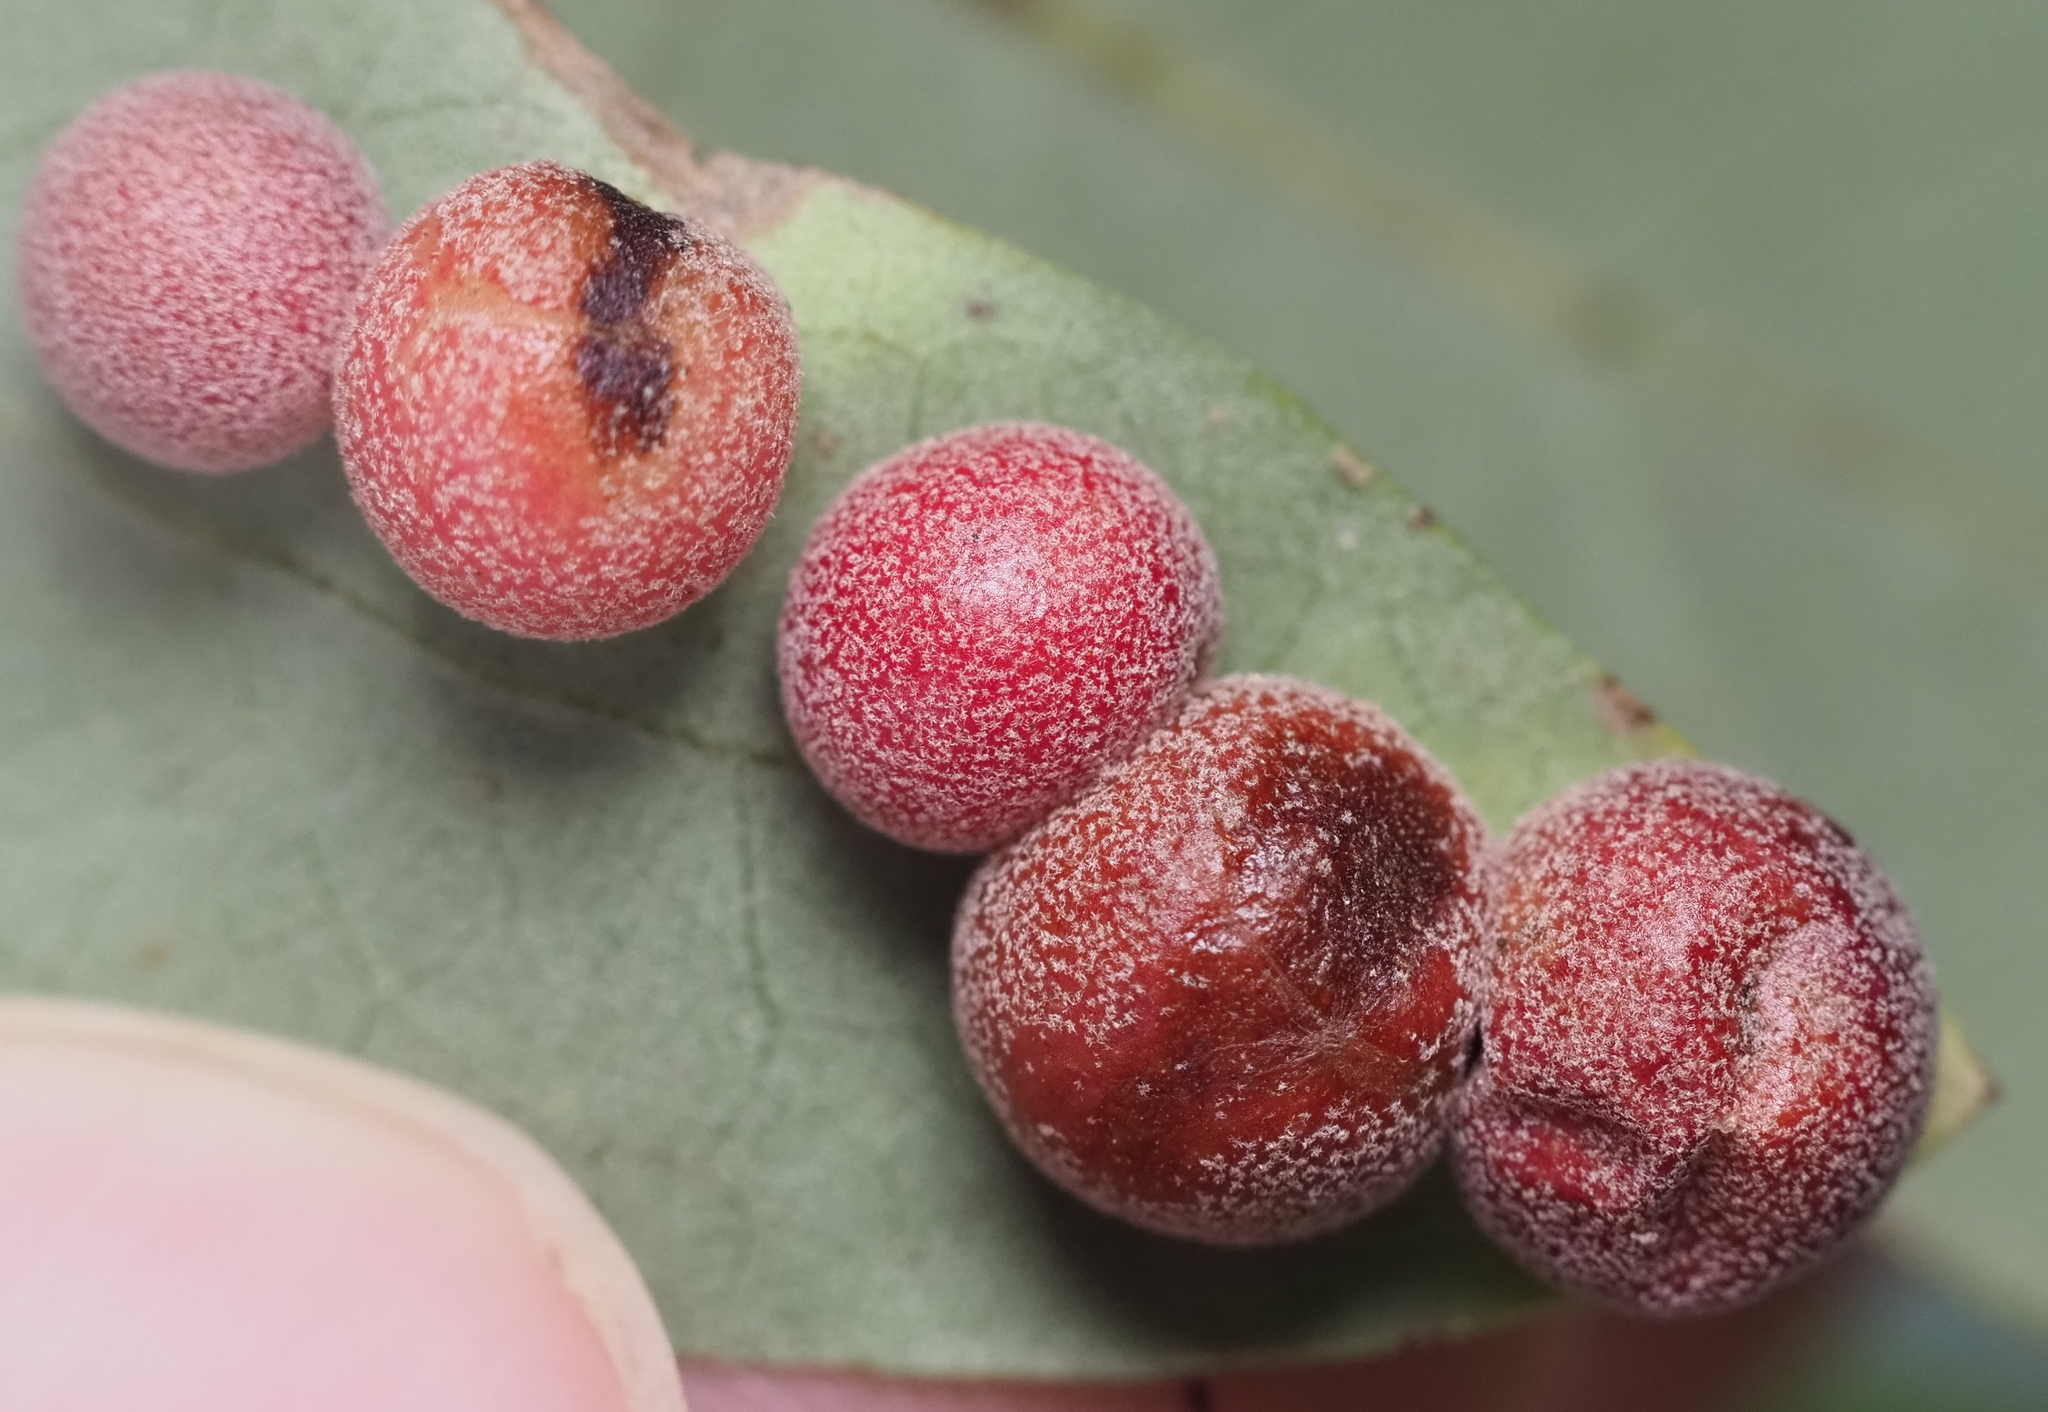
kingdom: Animalia
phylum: Arthropoda
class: Insecta
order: Hymenoptera
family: Cynipidae
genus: Belonocnema
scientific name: Belonocnema kinseyi
